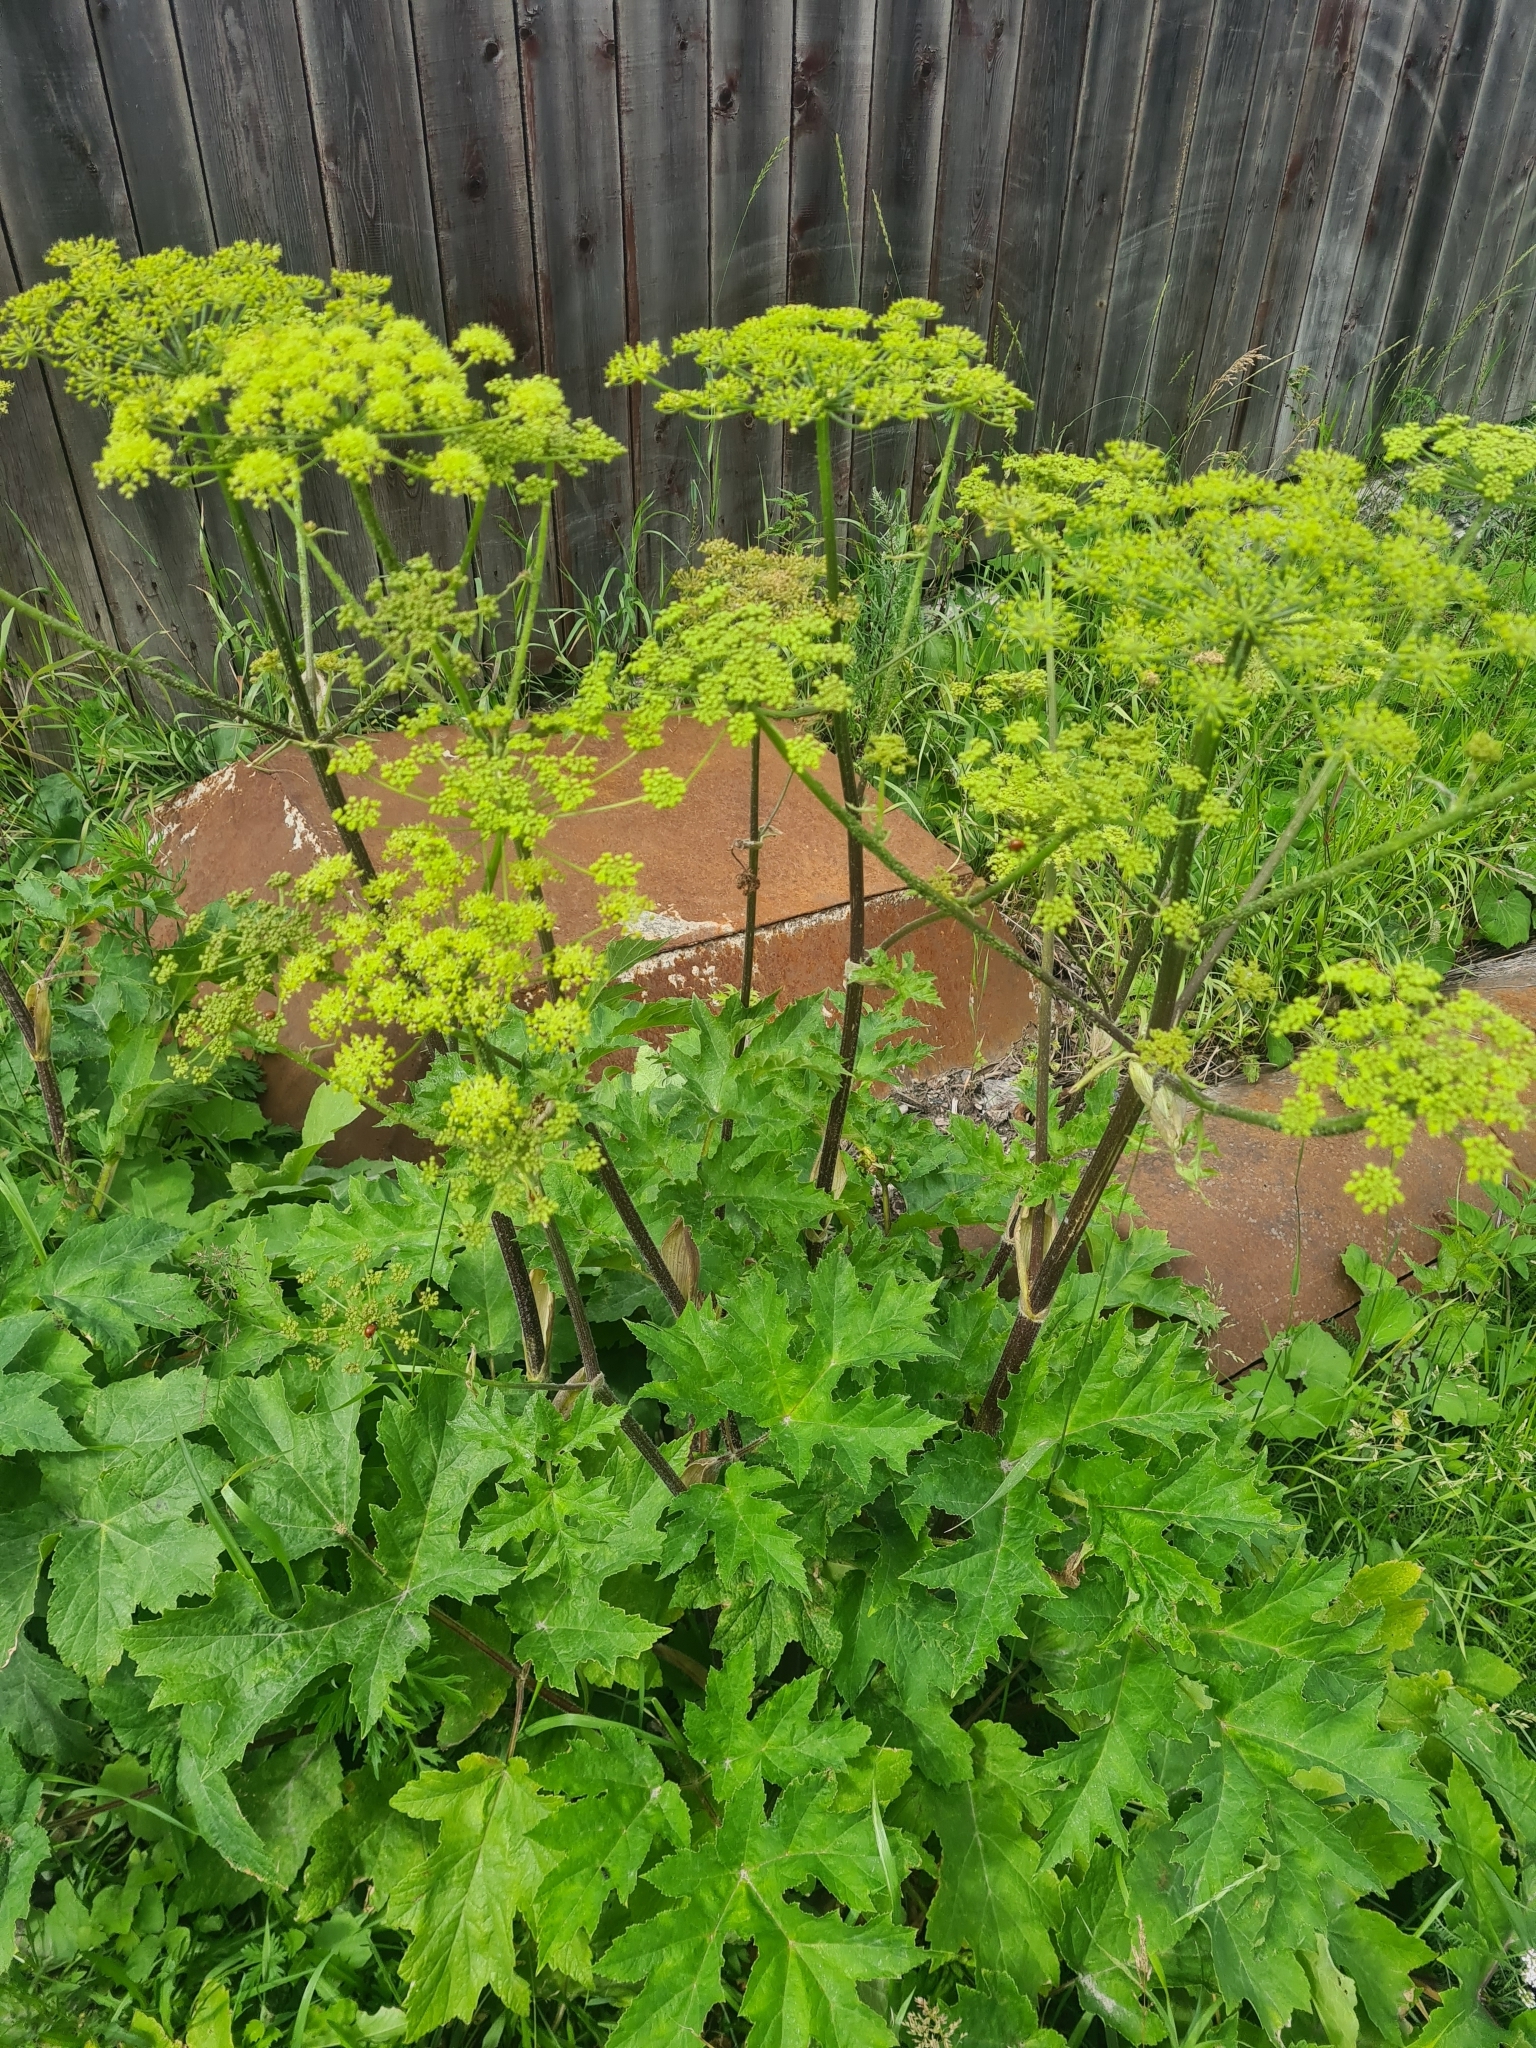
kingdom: Plantae
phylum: Tracheophyta
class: Magnoliopsida
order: Apiales
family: Apiaceae
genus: Heracleum
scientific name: Heracleum sphondylium
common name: Hogweed
